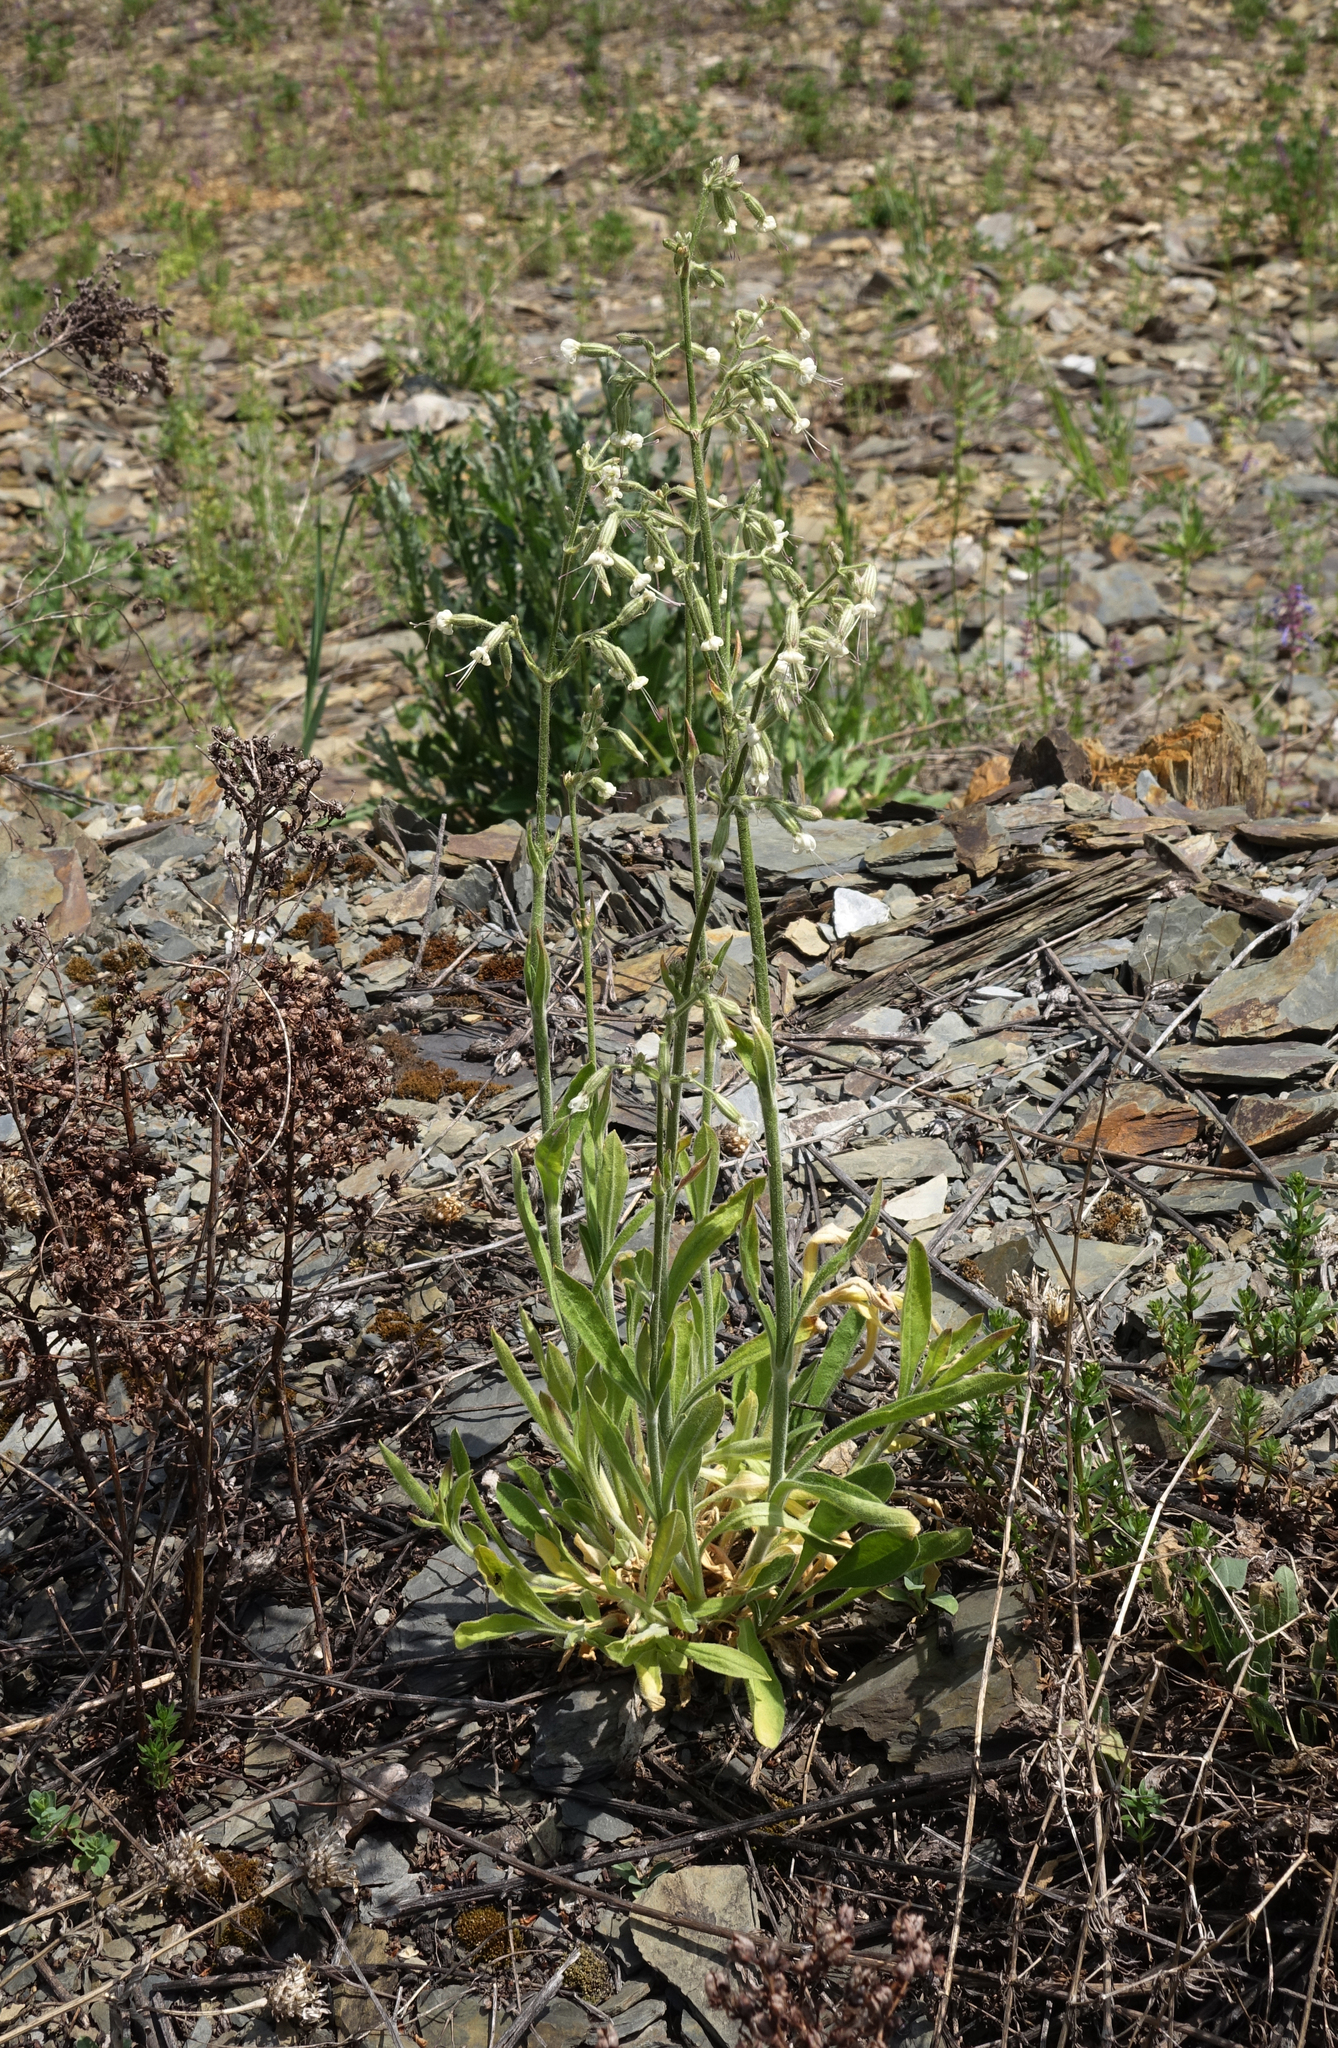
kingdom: Plantae
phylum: Tracheophyta
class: Magnoliopsida
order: Caryophyllales
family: Caryophyllaceae
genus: Silene
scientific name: Silene nutans
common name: Nottingham catchfly
